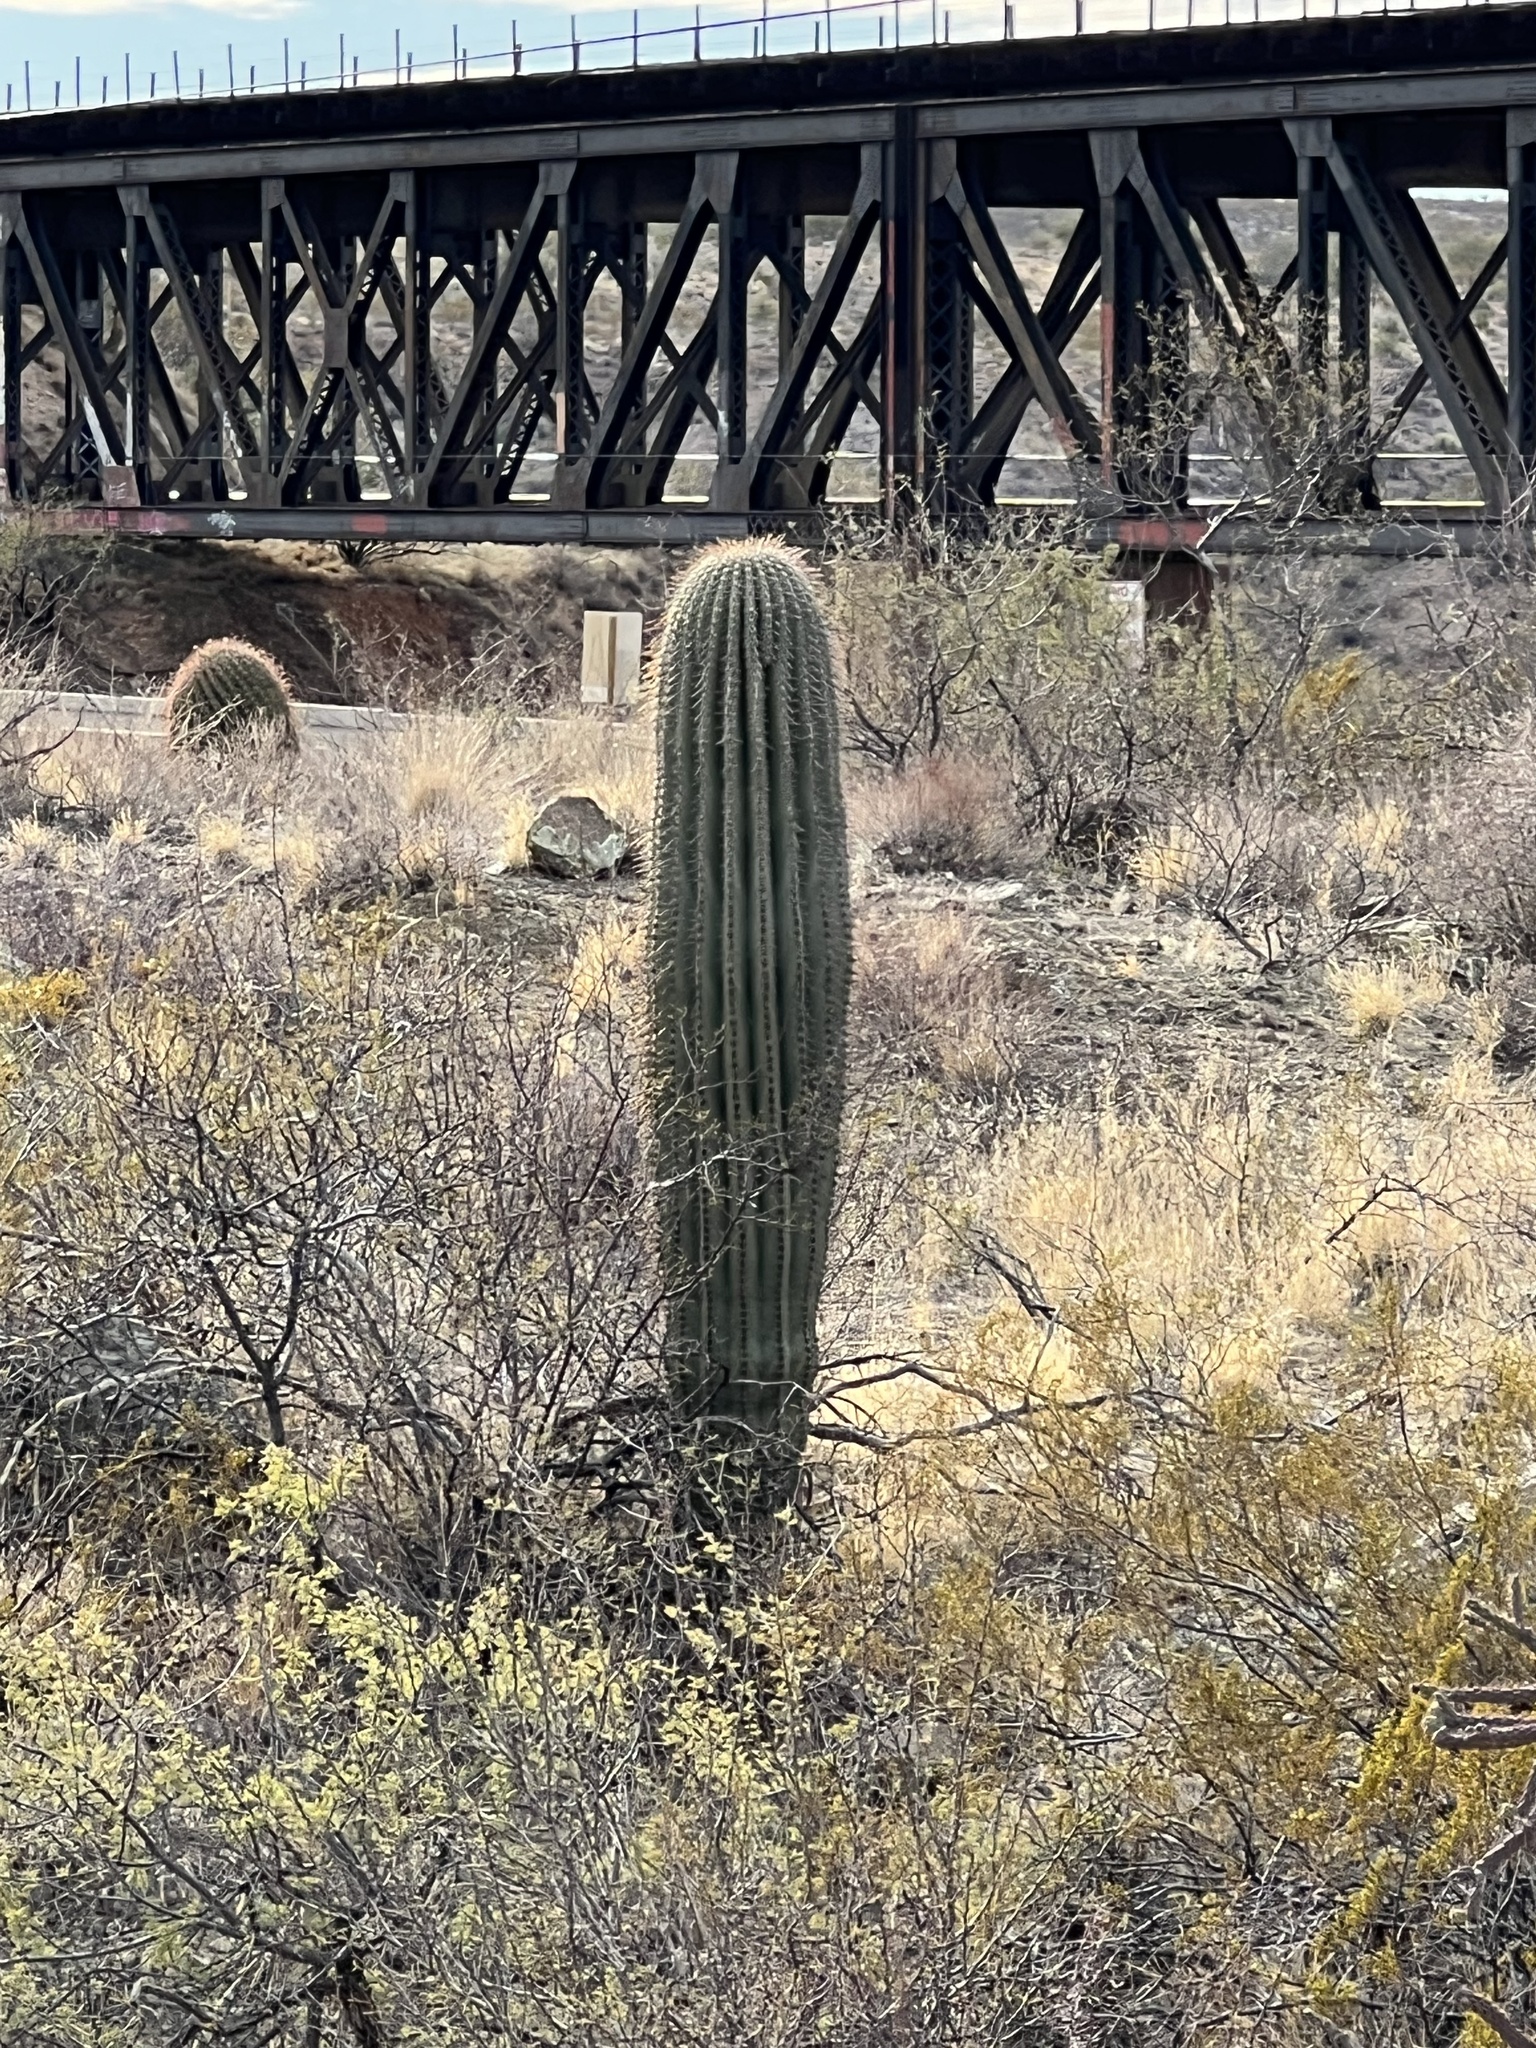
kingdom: Plantae
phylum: Tracheophyta
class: Magnoliopsida
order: Caryophyllales
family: Cactaceae
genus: Carnegiea
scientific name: Carnegiea gigantea
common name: Saguaro
